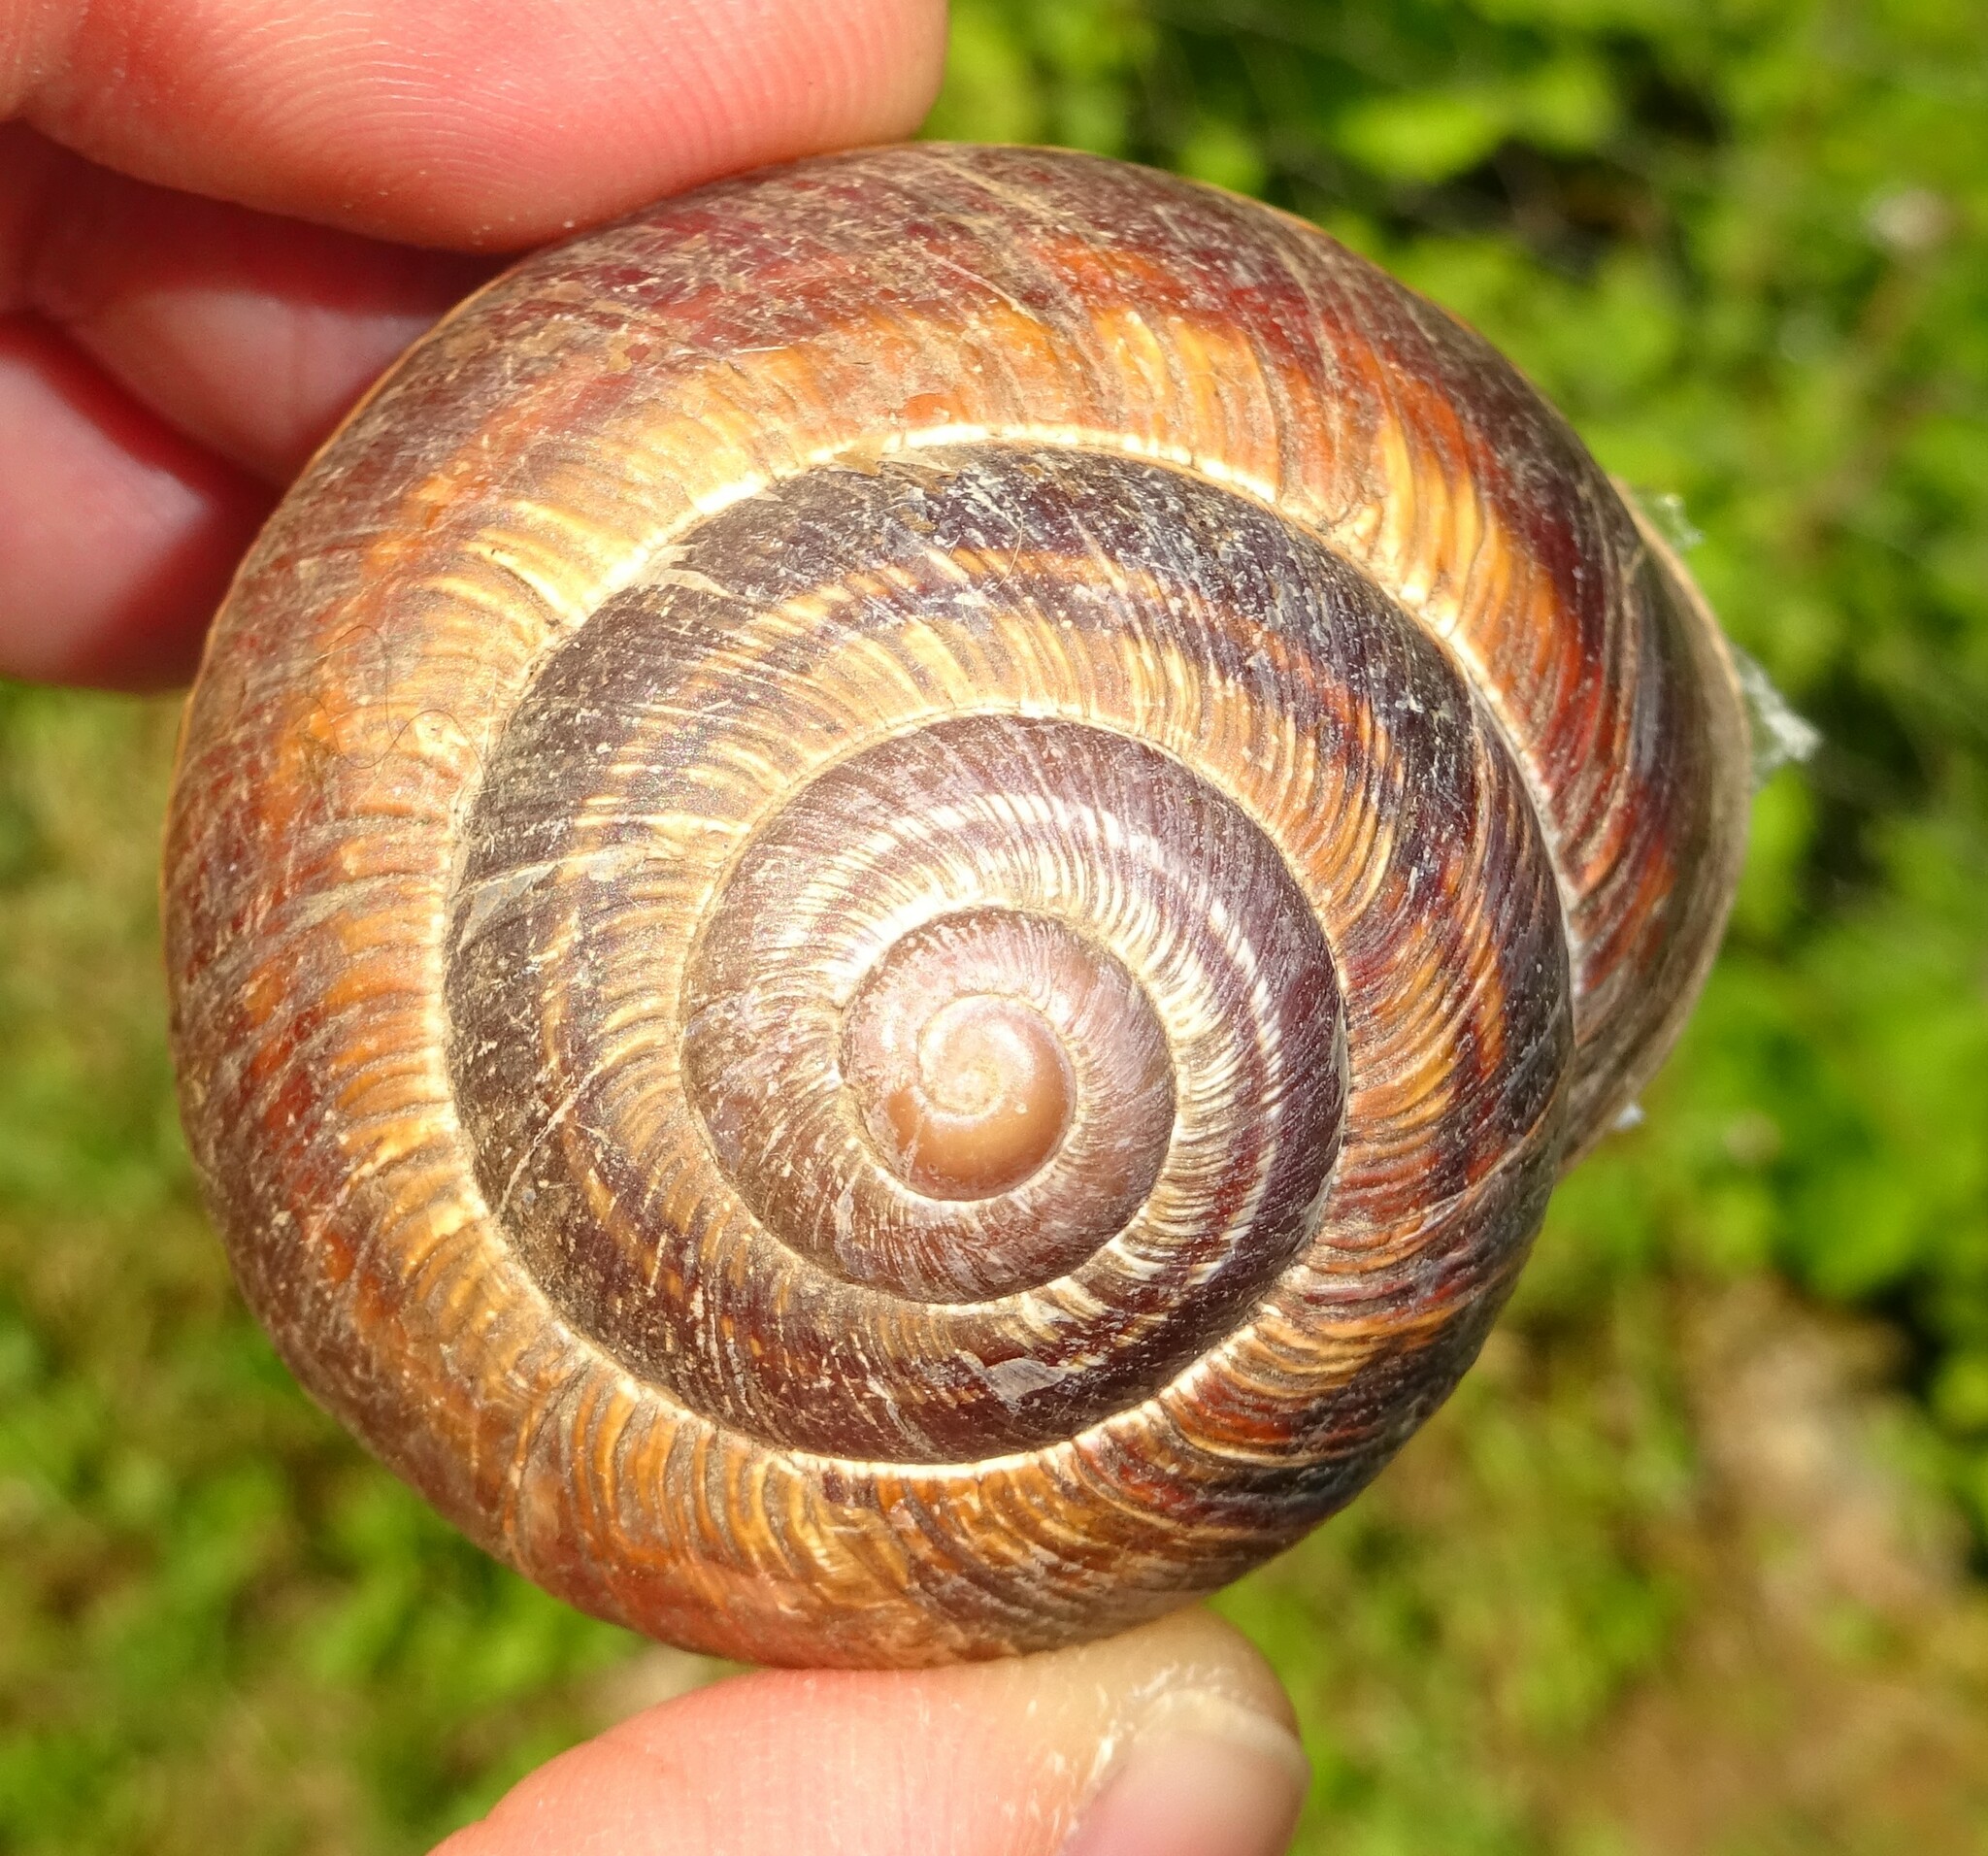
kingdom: Animalia
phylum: Mollusca
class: Gastropoda
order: Stylommatophora
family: Helicidae
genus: Helix
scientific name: Helix lucorum
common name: Turkish snail
